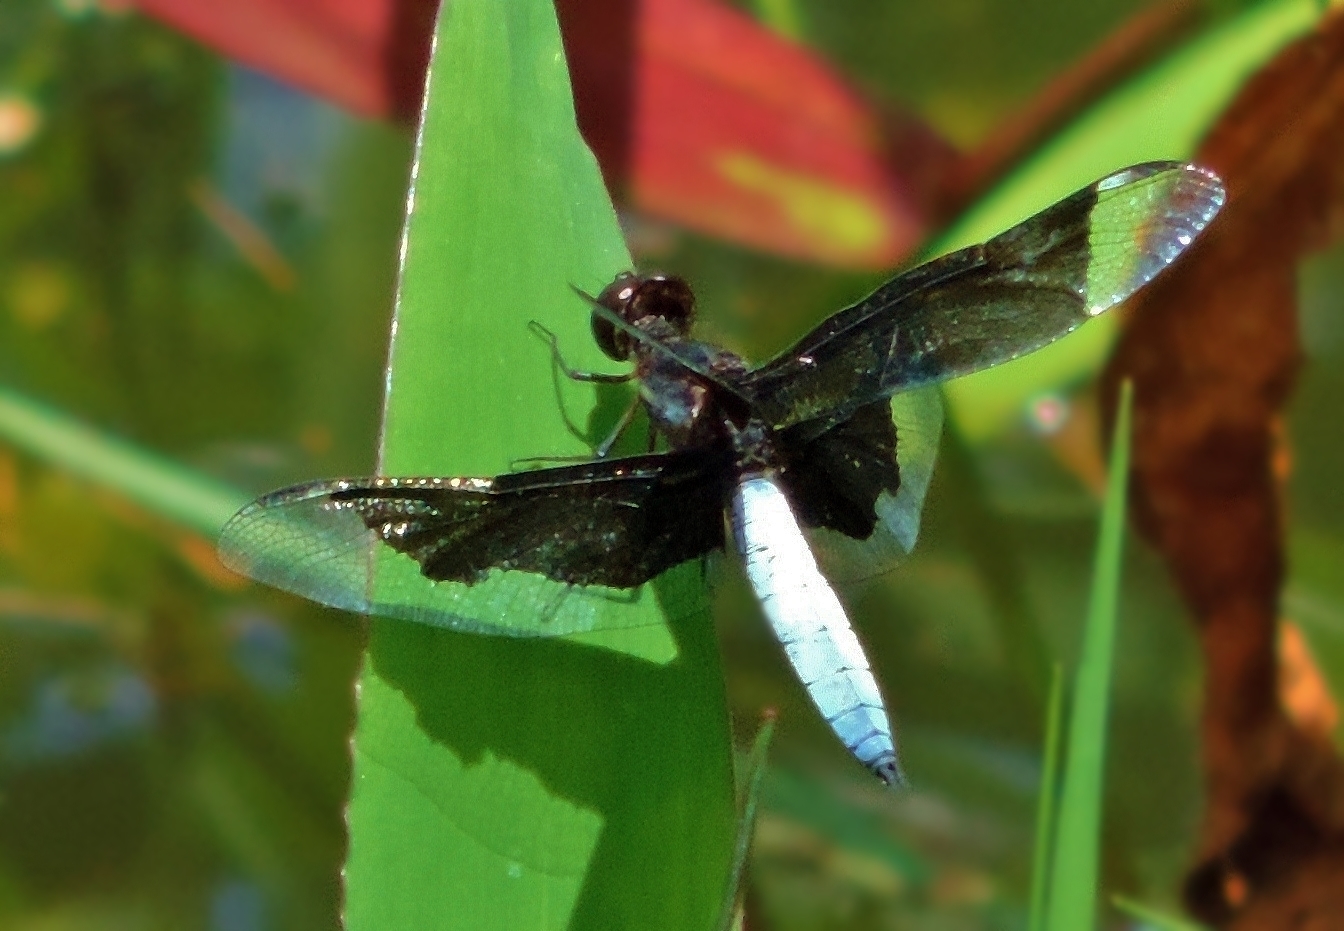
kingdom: Animalia
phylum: Arthropoda
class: Insecta
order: Odonata
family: Libellulidae
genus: Palpopleura
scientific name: Palpopleura lucia
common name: Lucia widow
